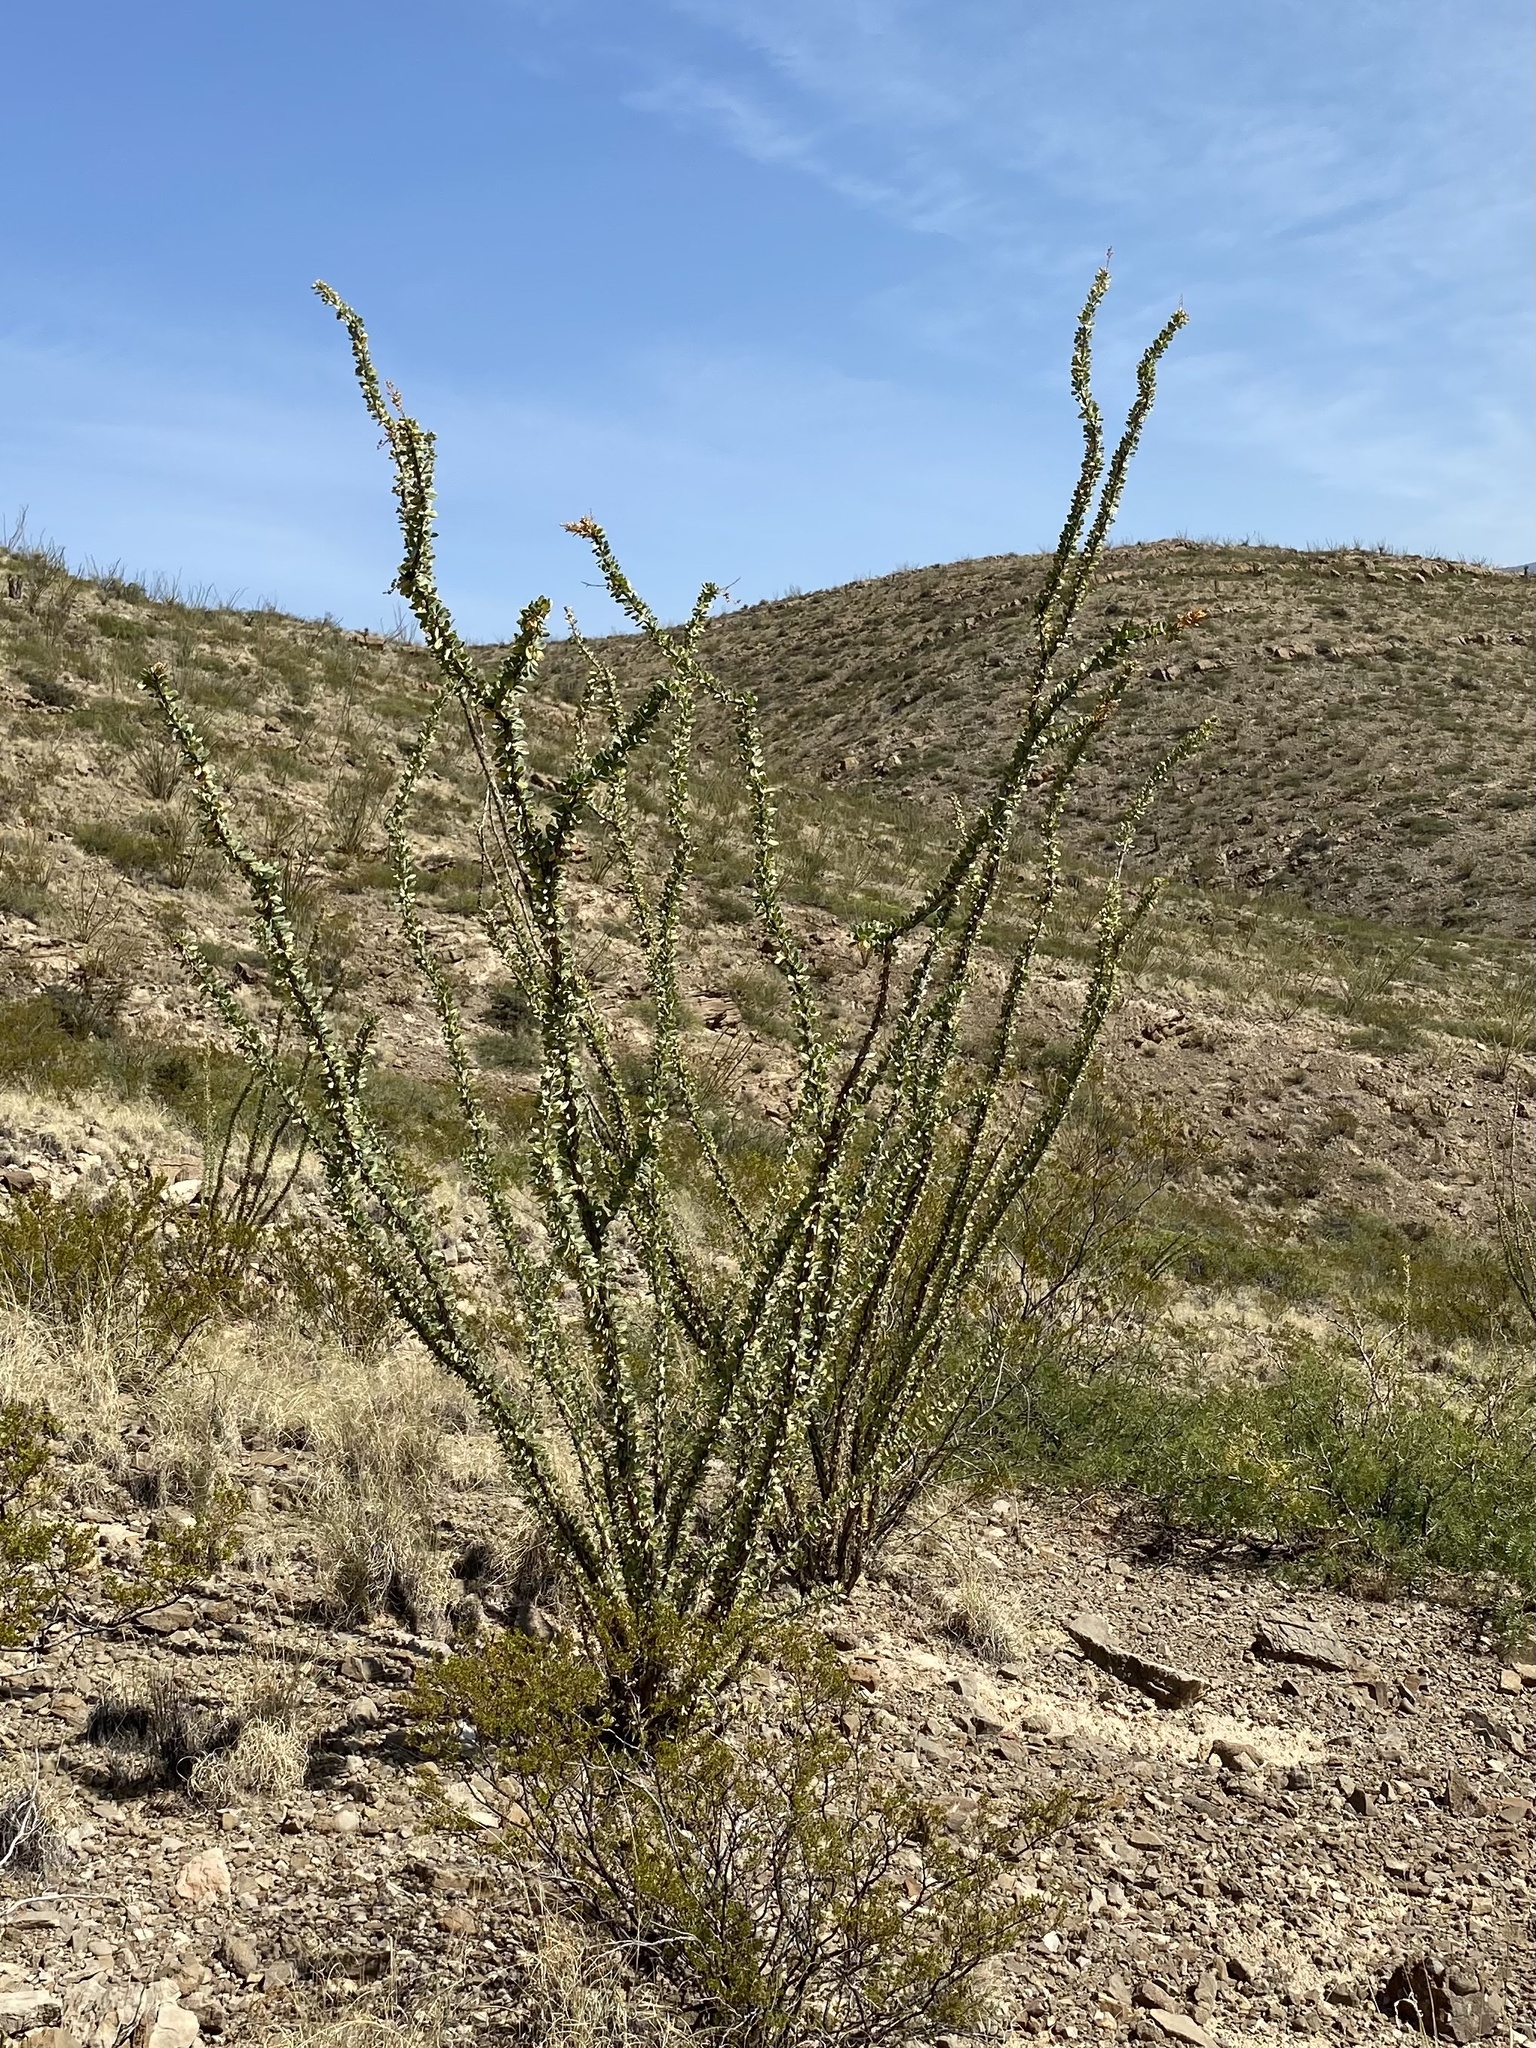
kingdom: Plantae
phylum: Tracheophyta
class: Magnoliopsida
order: Ericales
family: Fouquieriaceae
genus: Fouquieria
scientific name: Fouquieria splendens
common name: Vine-cactus
